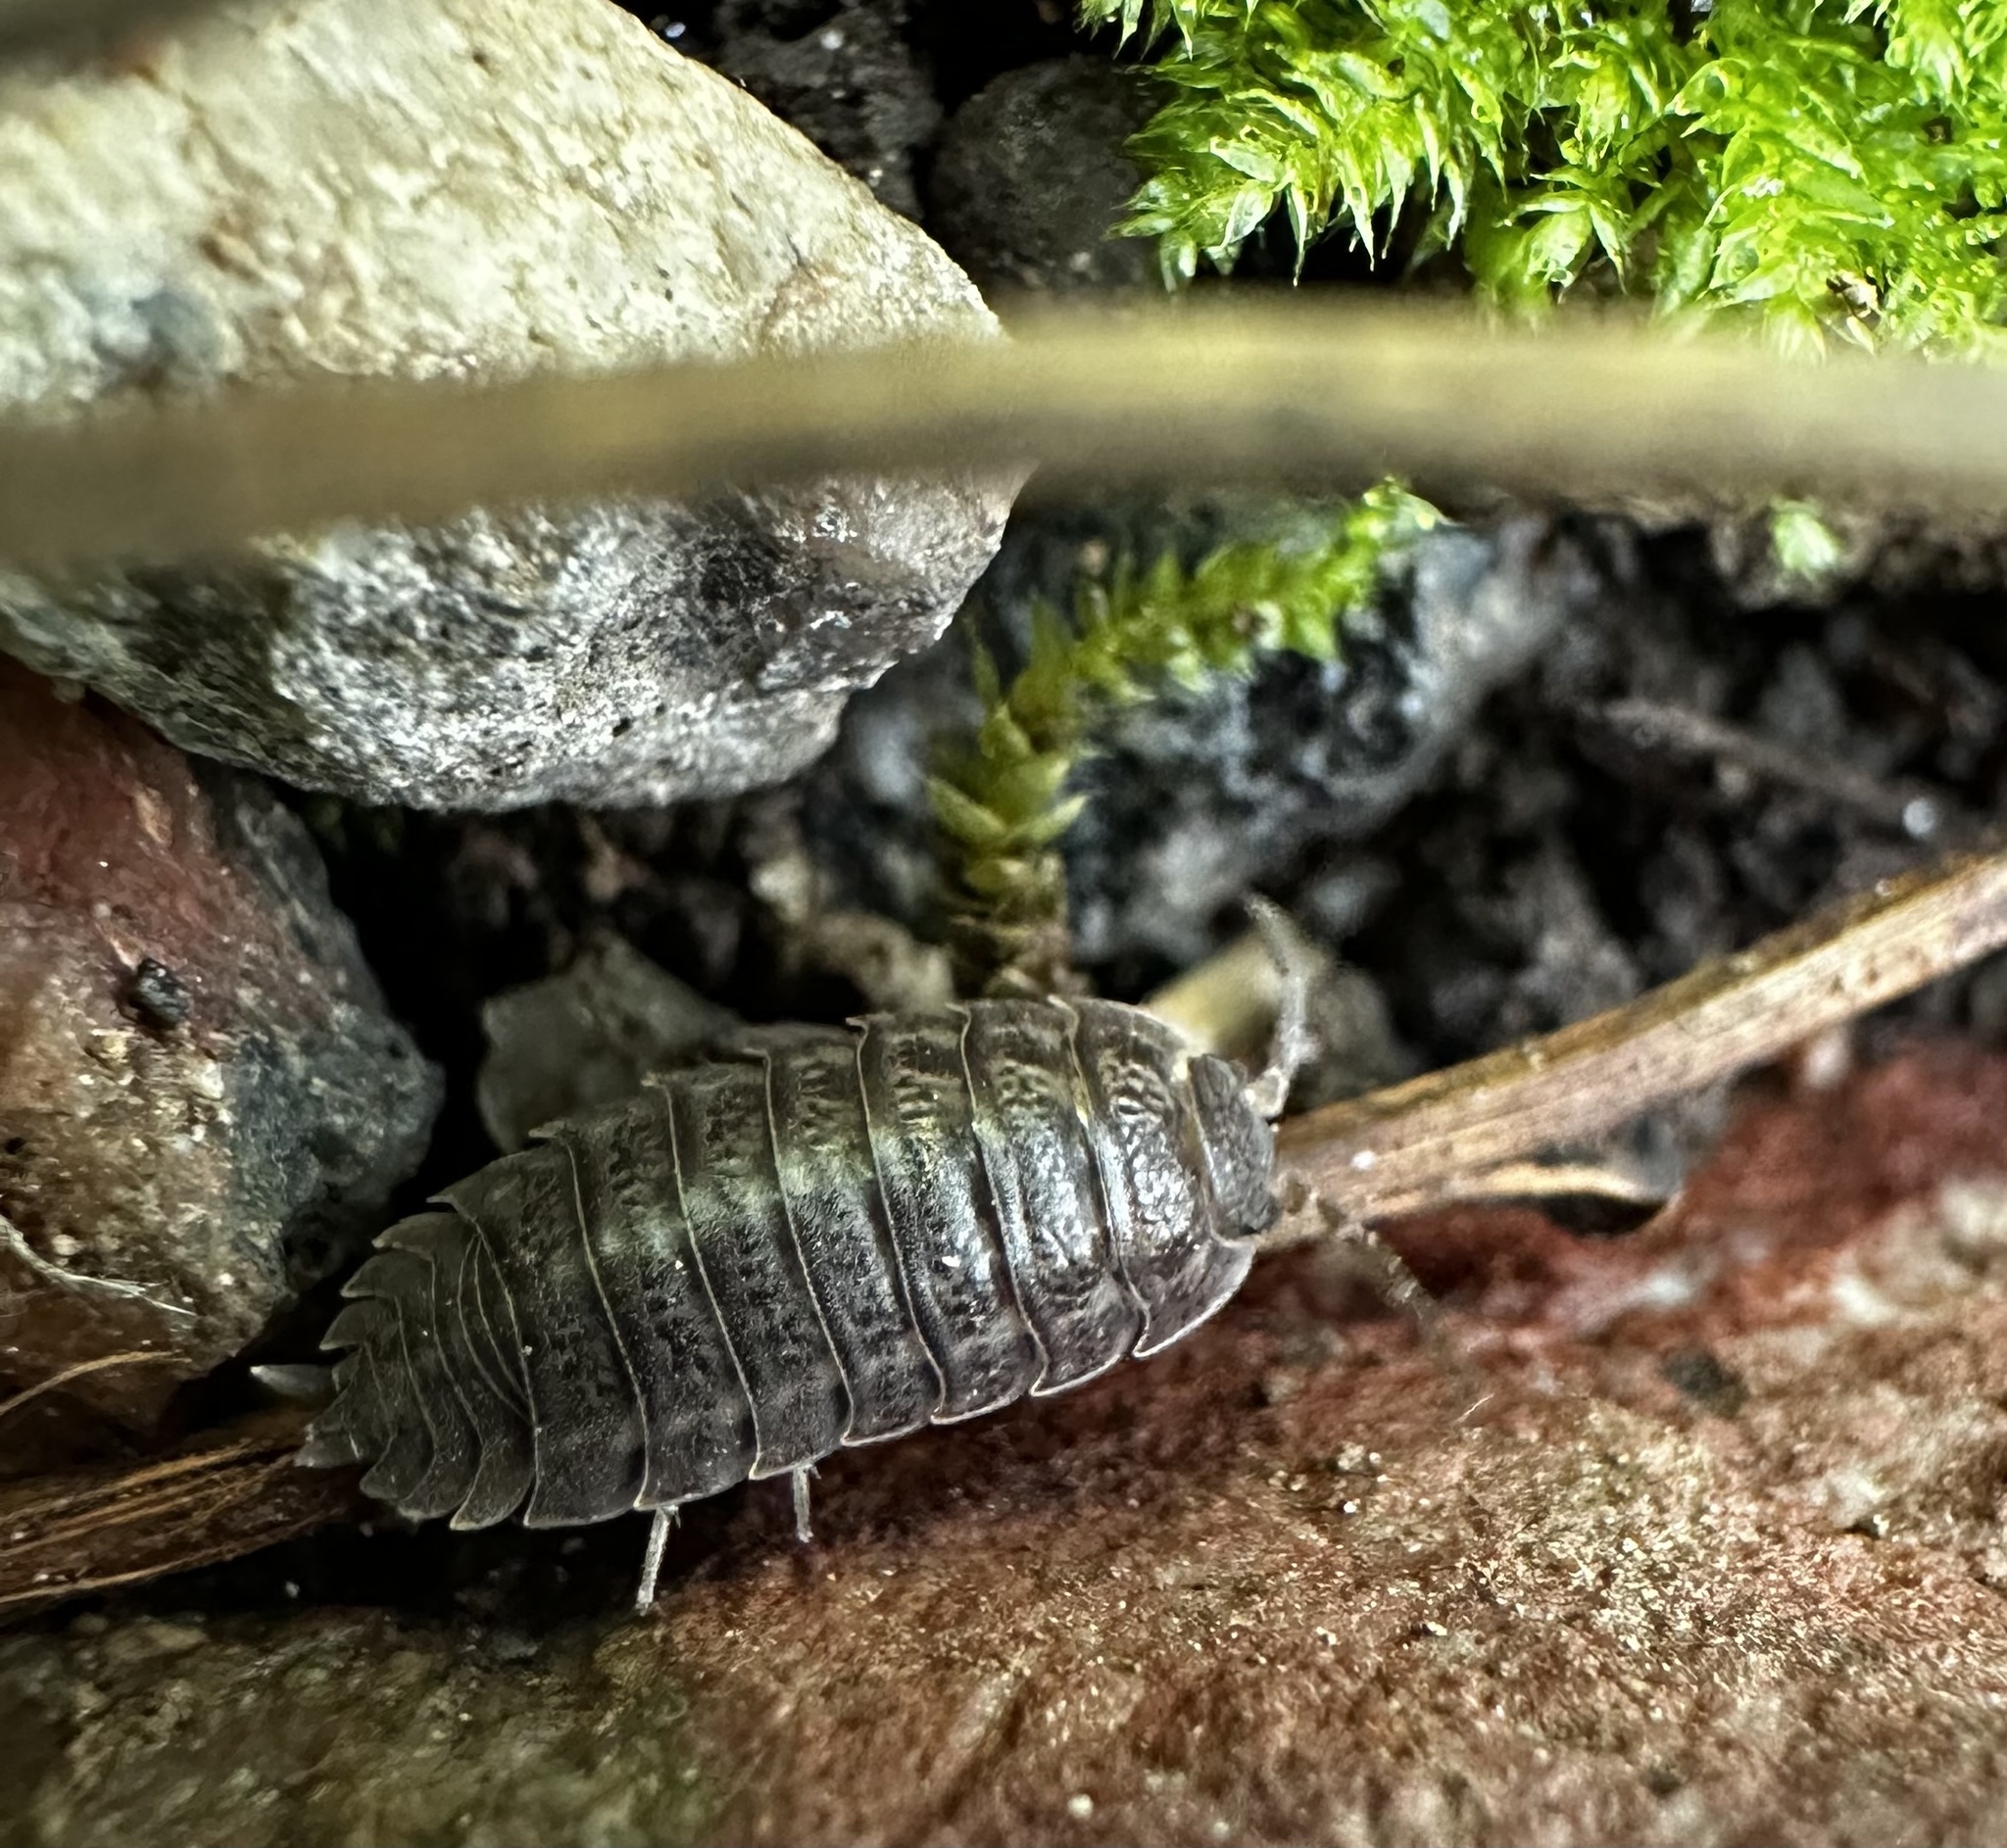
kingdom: Animalia
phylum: Arthropoda
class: Malacostraca
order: Isopoda
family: Trachelipodidae
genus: Trachelipus
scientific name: Trachelipus rathkii
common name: Isopod
